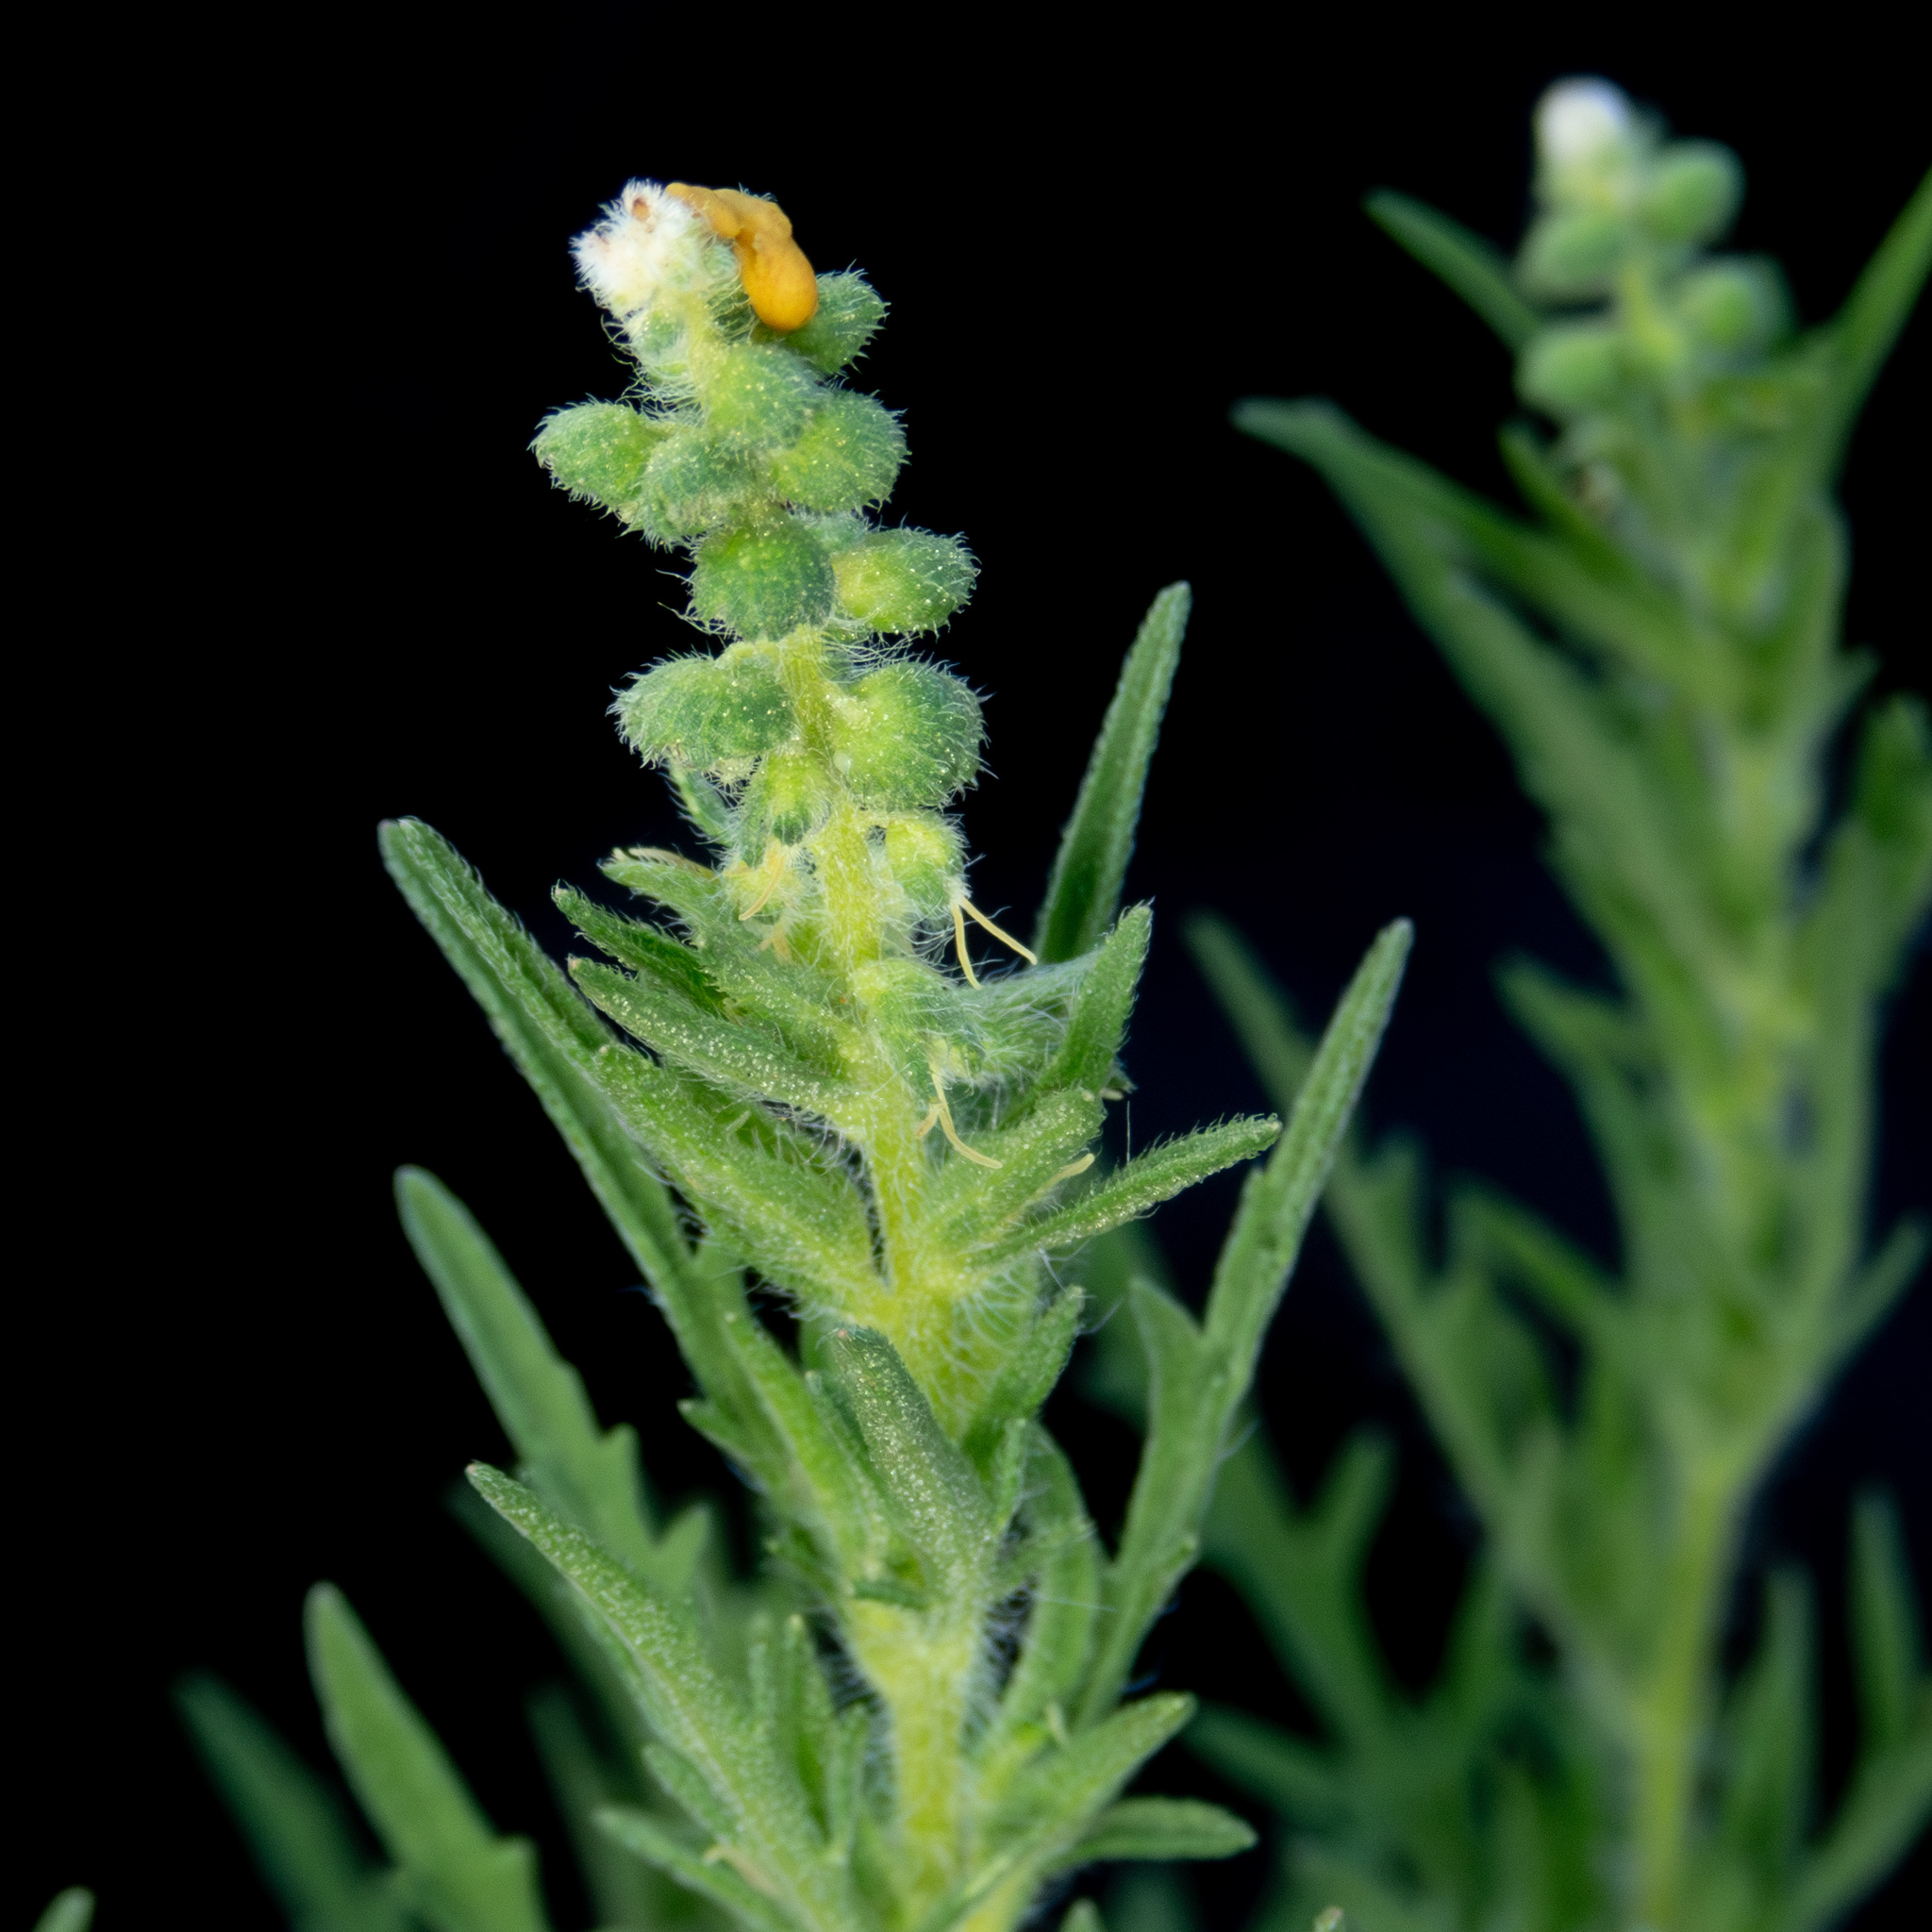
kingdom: Plantae
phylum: Tracheophyta
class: Magnoliopsida
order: Asterales
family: Asteraceae
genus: Ambrosia
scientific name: Ambrosia psilostachya
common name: Perennial ragweed
